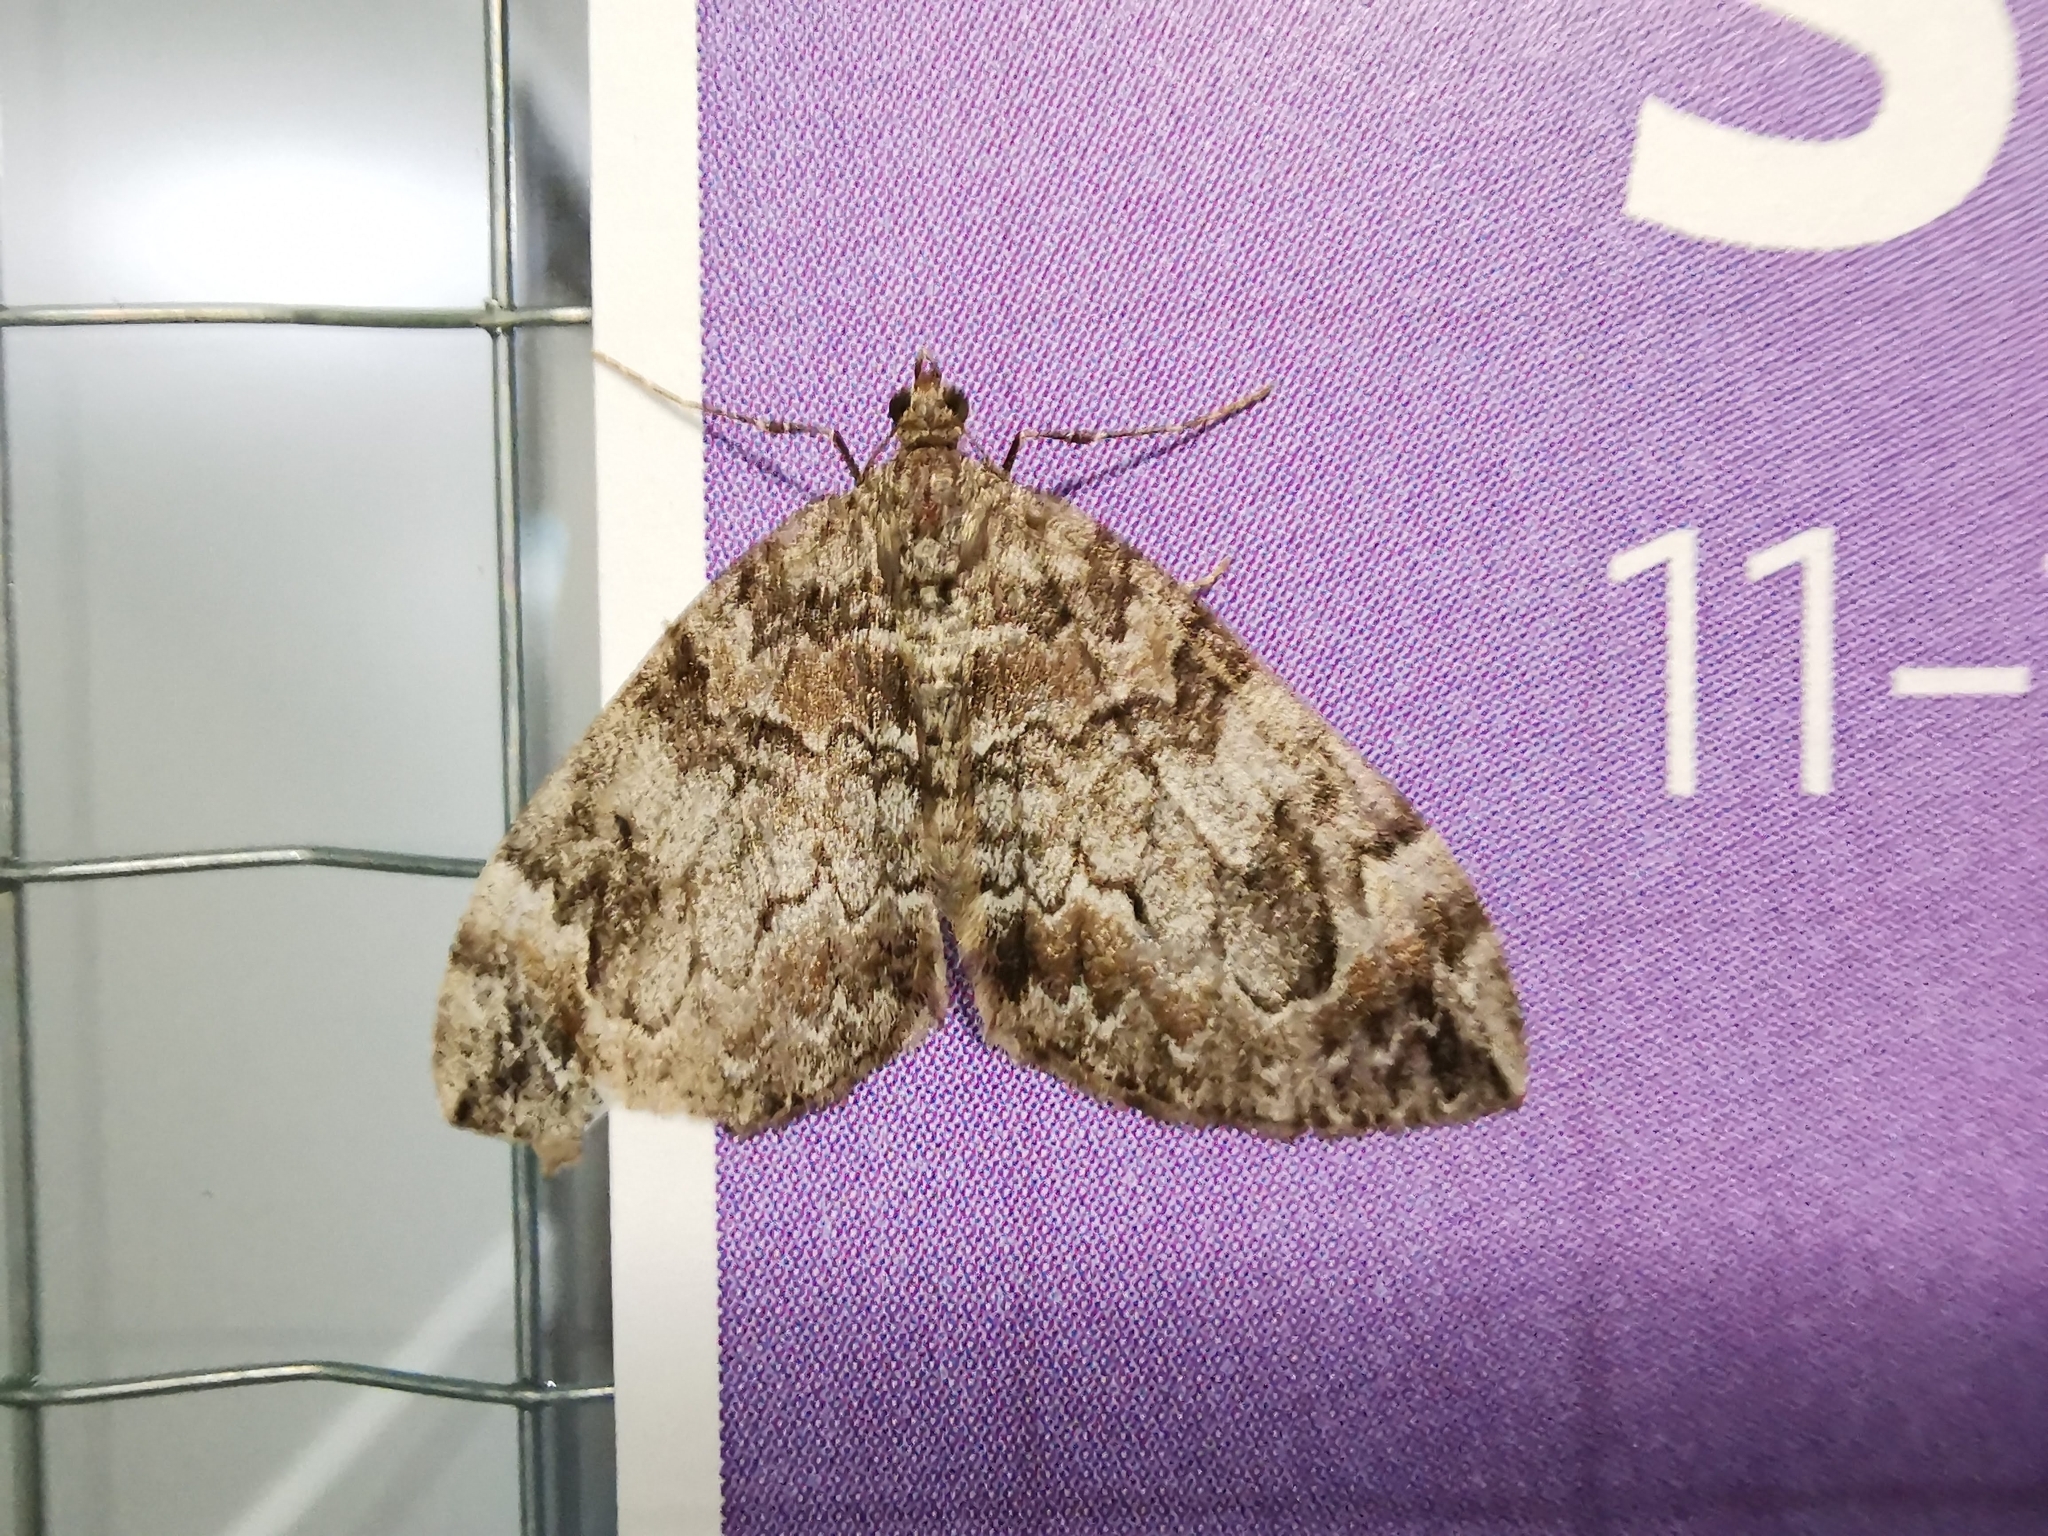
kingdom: Animalia
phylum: Arthropoda
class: Insecta
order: Lepidoptera
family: Geometridae
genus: Dysstroma
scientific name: Dysstroma citrata
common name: Dark marbled carpet
